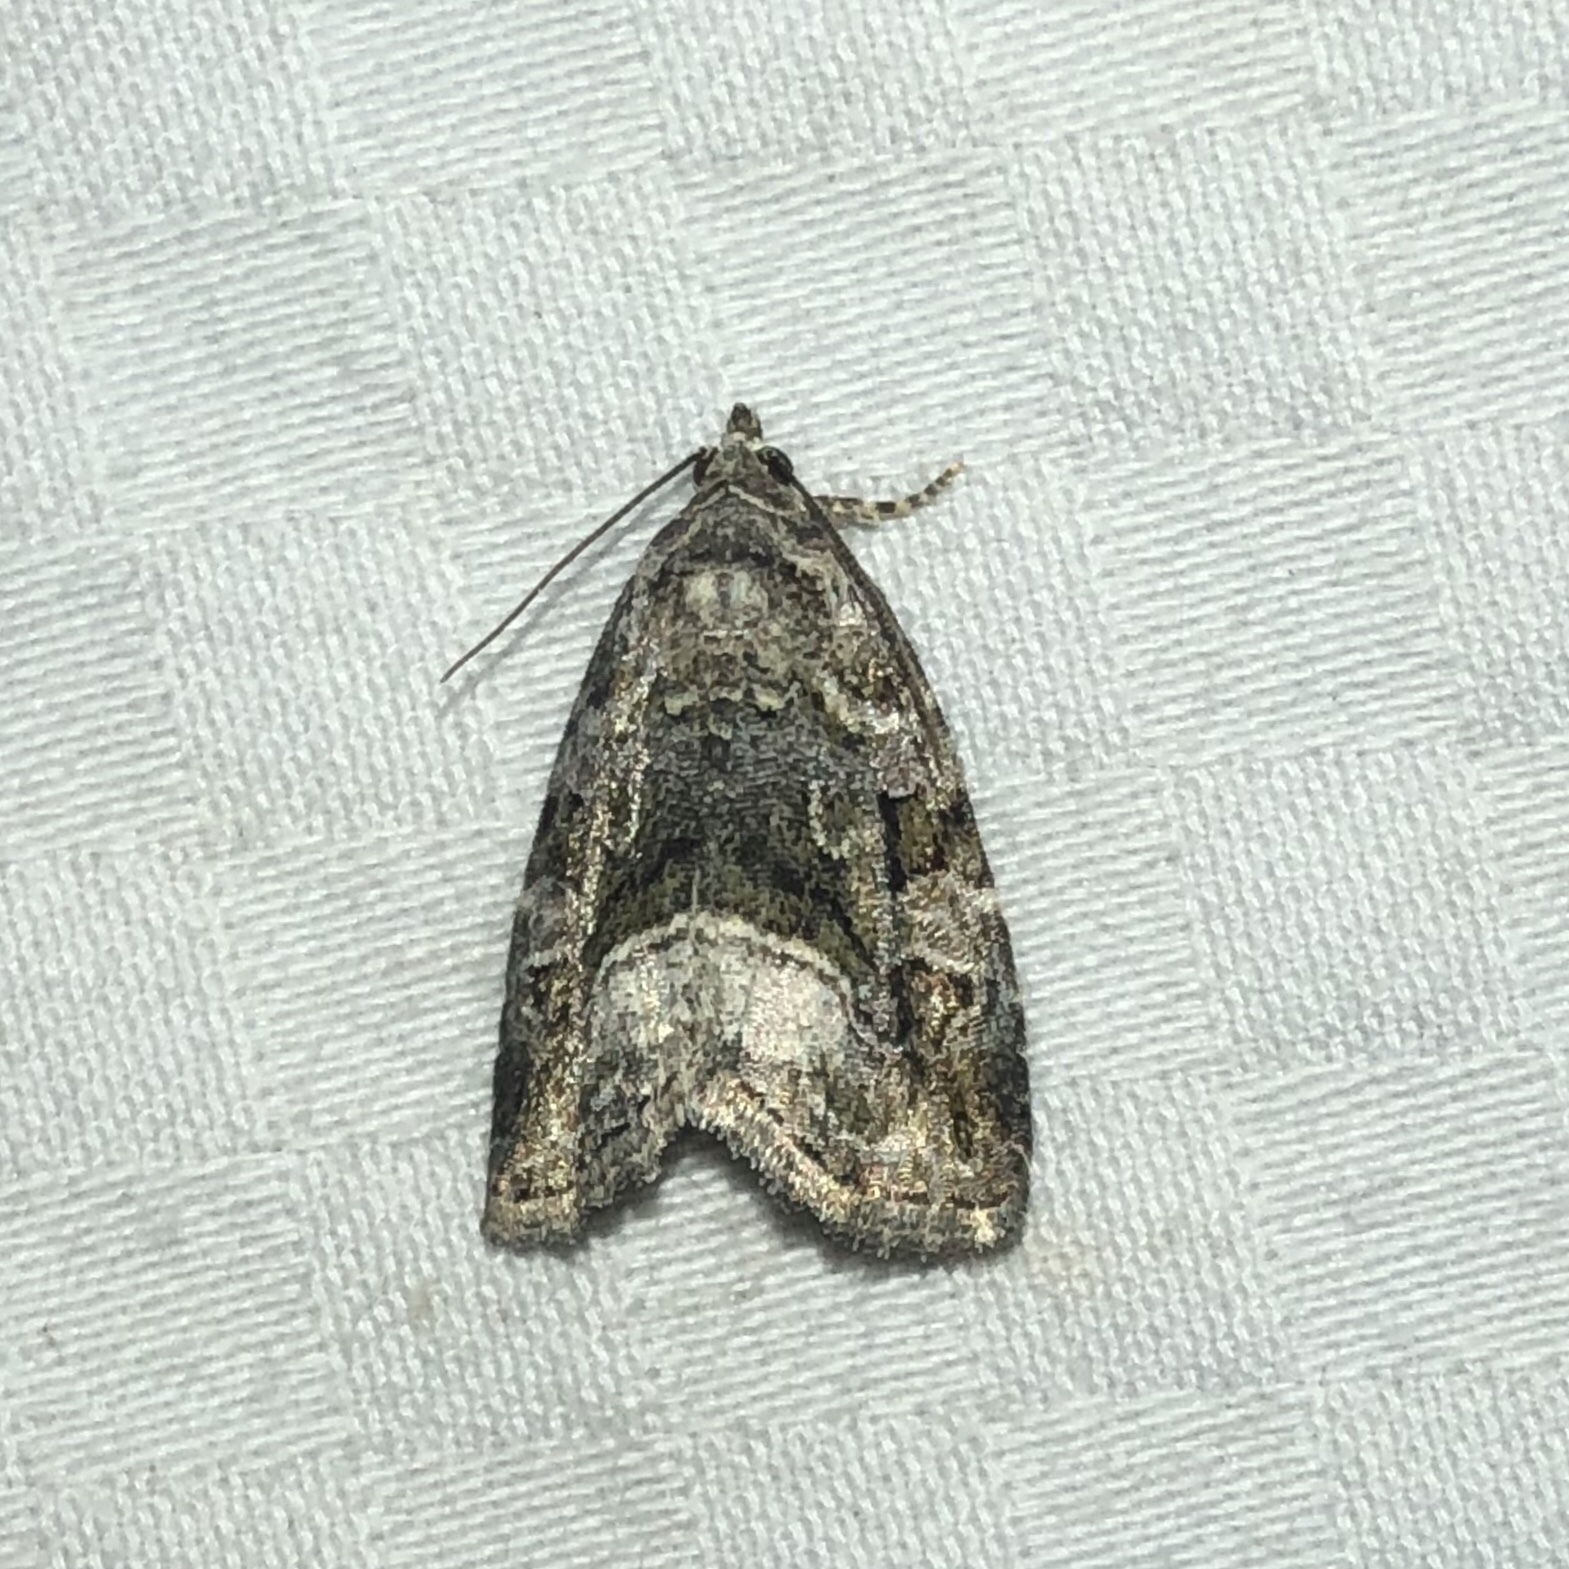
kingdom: Animalia
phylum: Arthropoda
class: Insecta
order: Lepidoptera
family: Noctuidae
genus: Protodeltote
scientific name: Protodeltote muscosula
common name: Large mossy glyph
